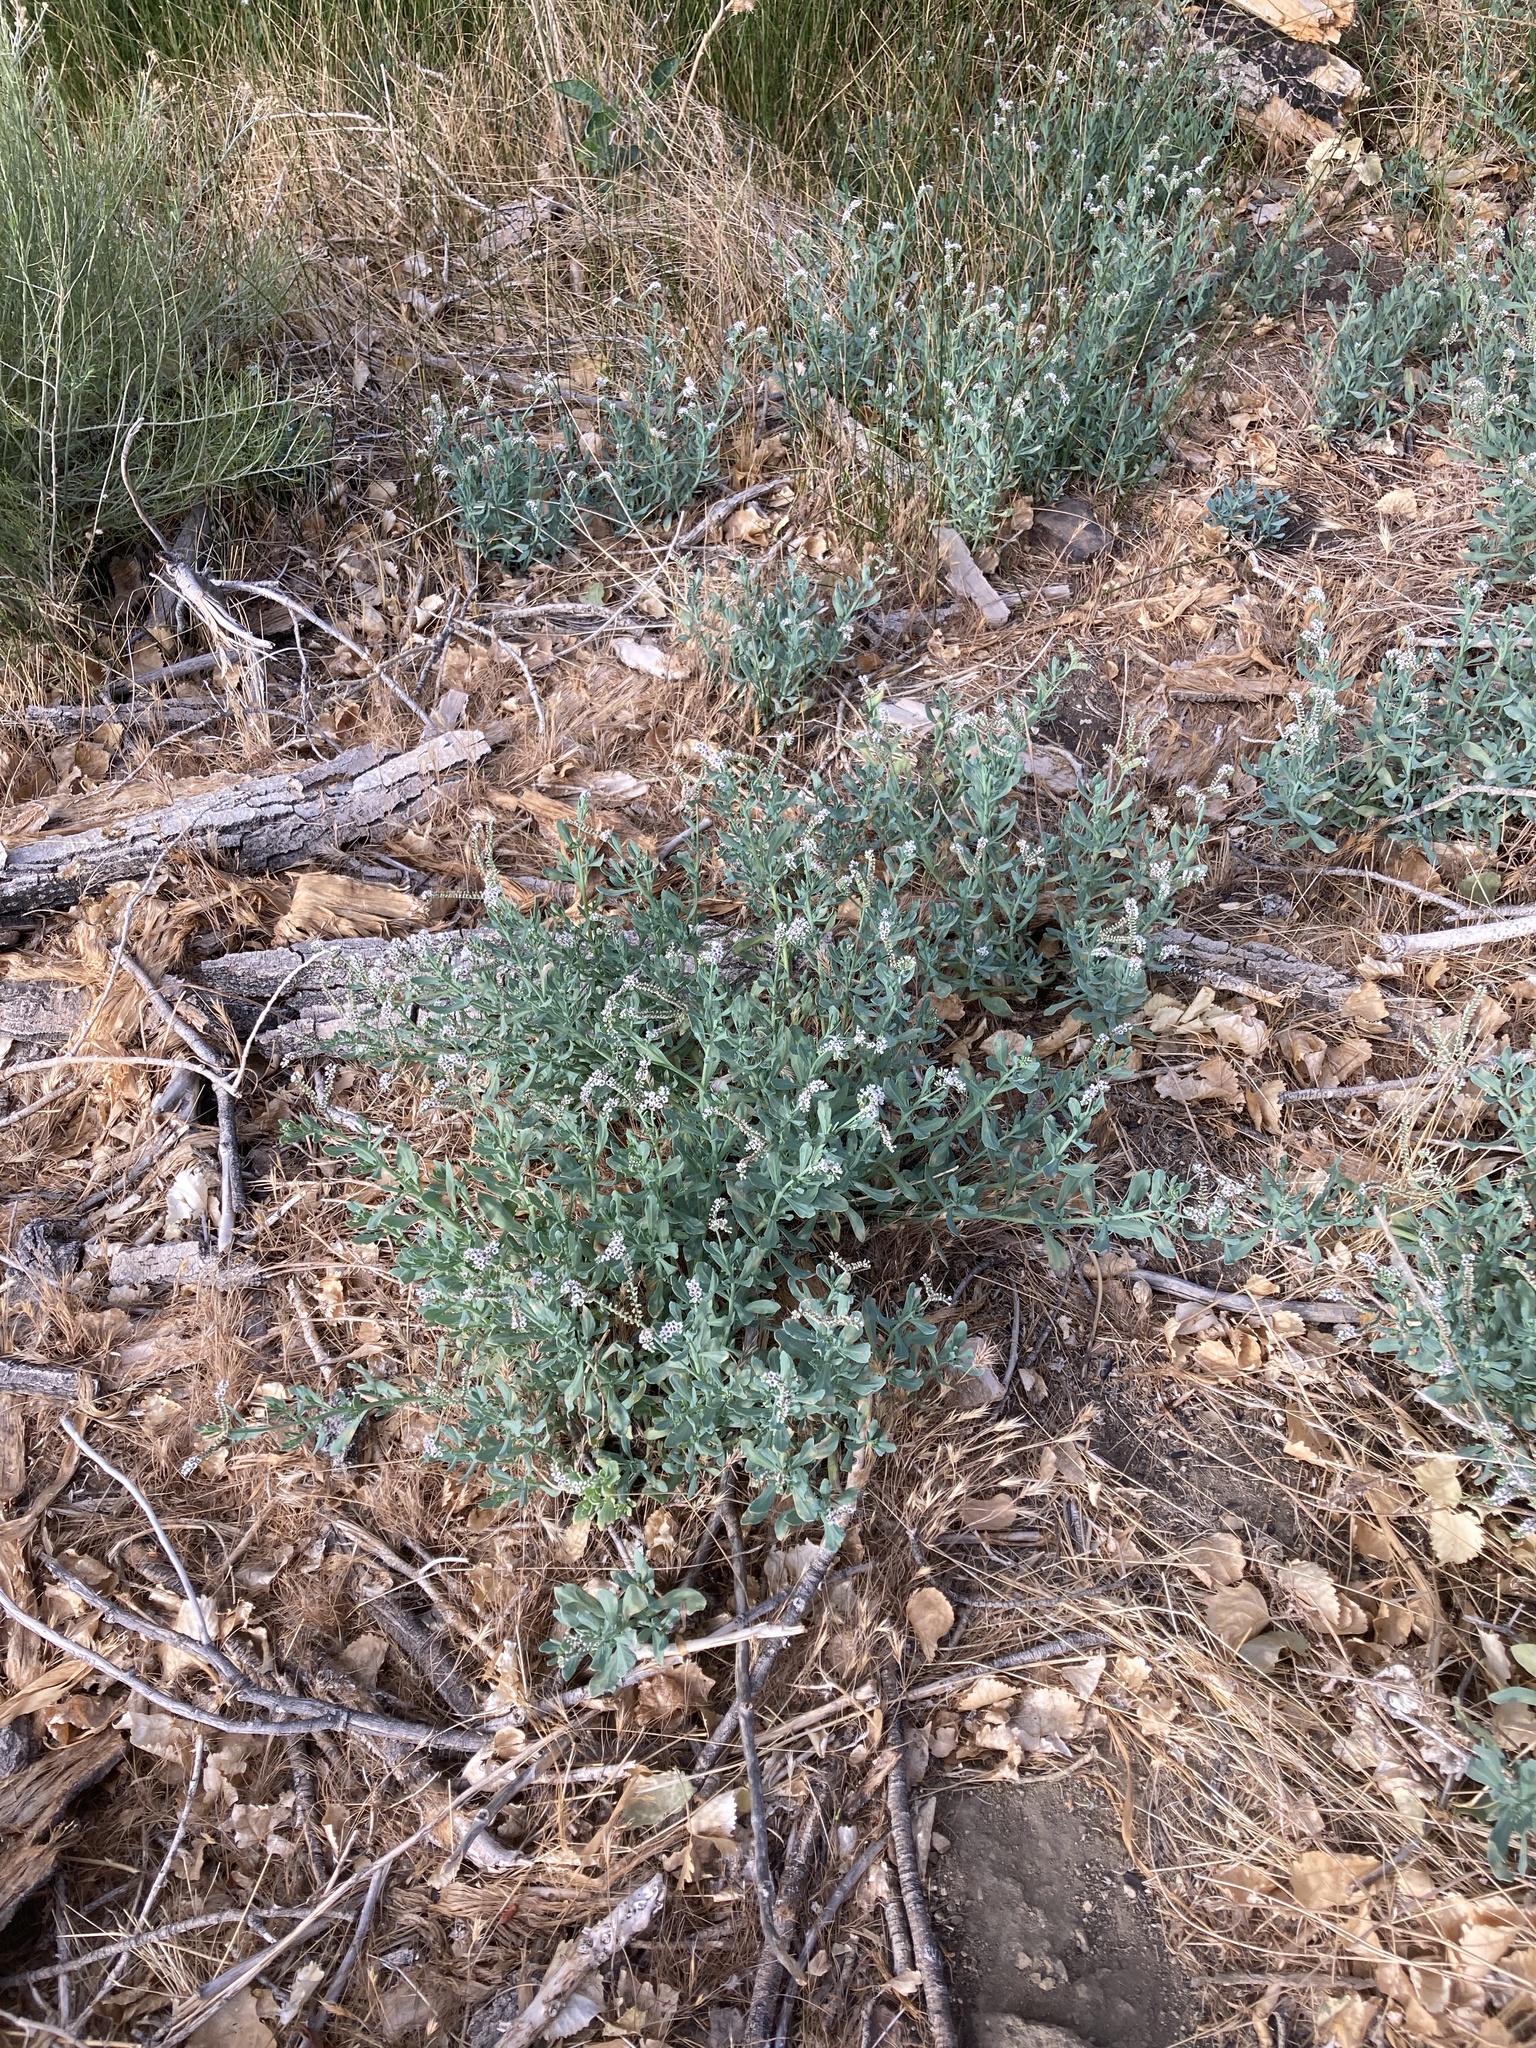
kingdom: Plantae
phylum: Tracheophyta
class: Magnoliopsida
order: Boraginales
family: Heliotropiaceae
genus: Heliotropium
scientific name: Heliotropium curassavicum
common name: Seaside heliotrope
